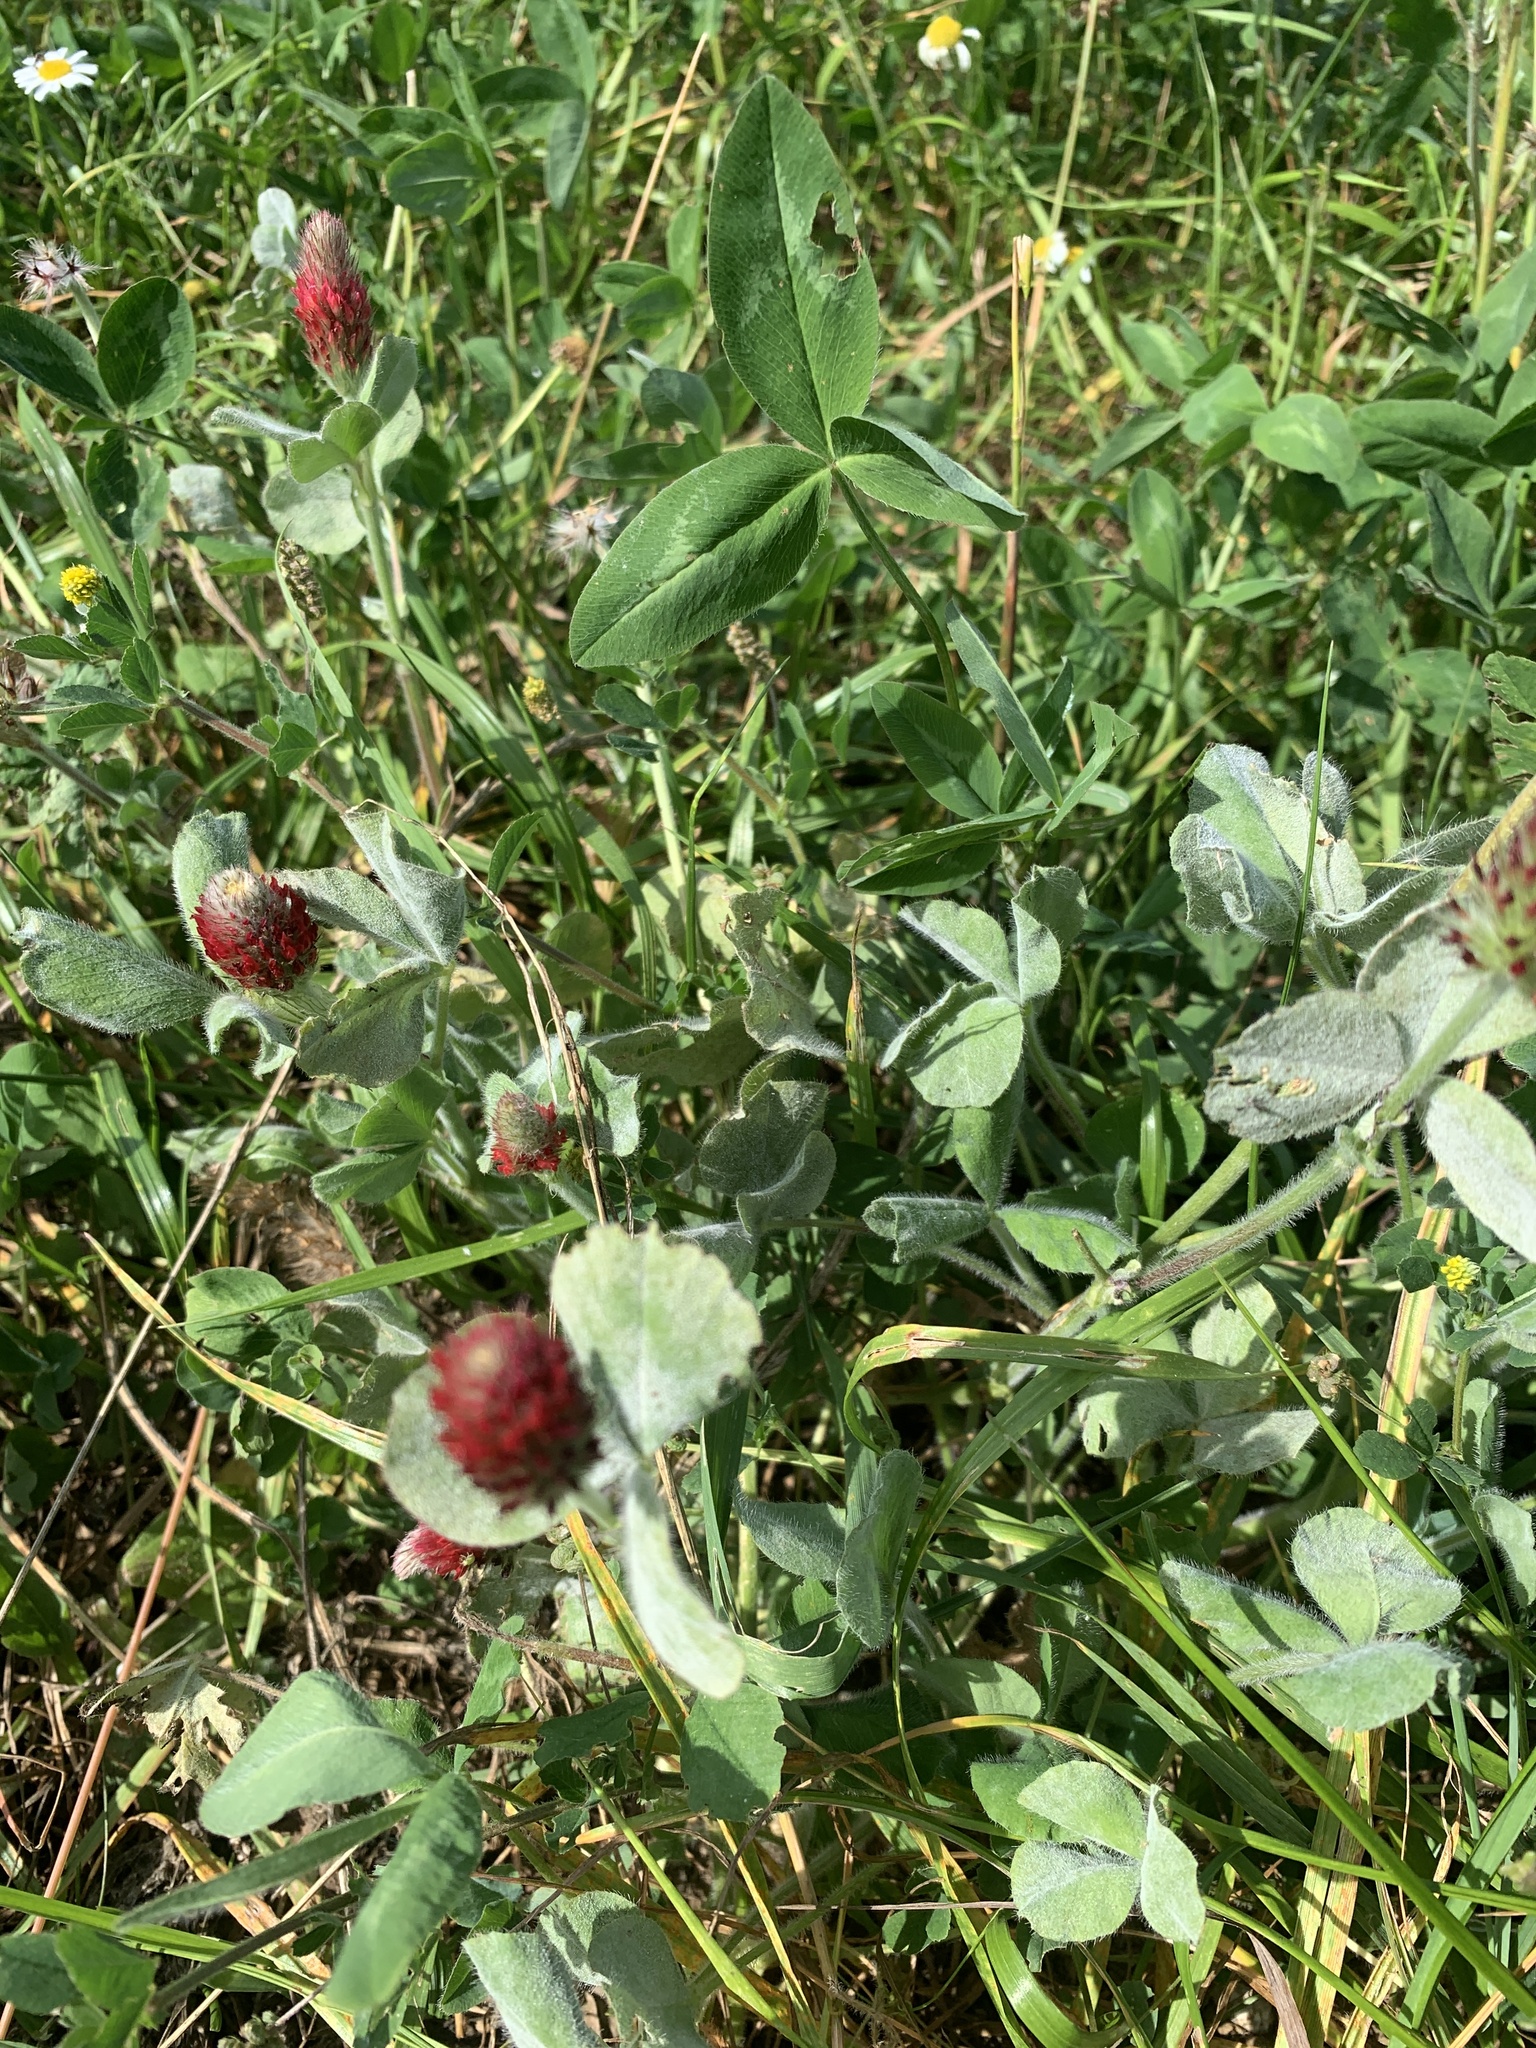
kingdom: Plantae
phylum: Tracheophyta
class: Magnoliopsida
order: Fabales
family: Fabaceae
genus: Trifolium
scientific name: Trifolium incarnatum
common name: Crimson clover
